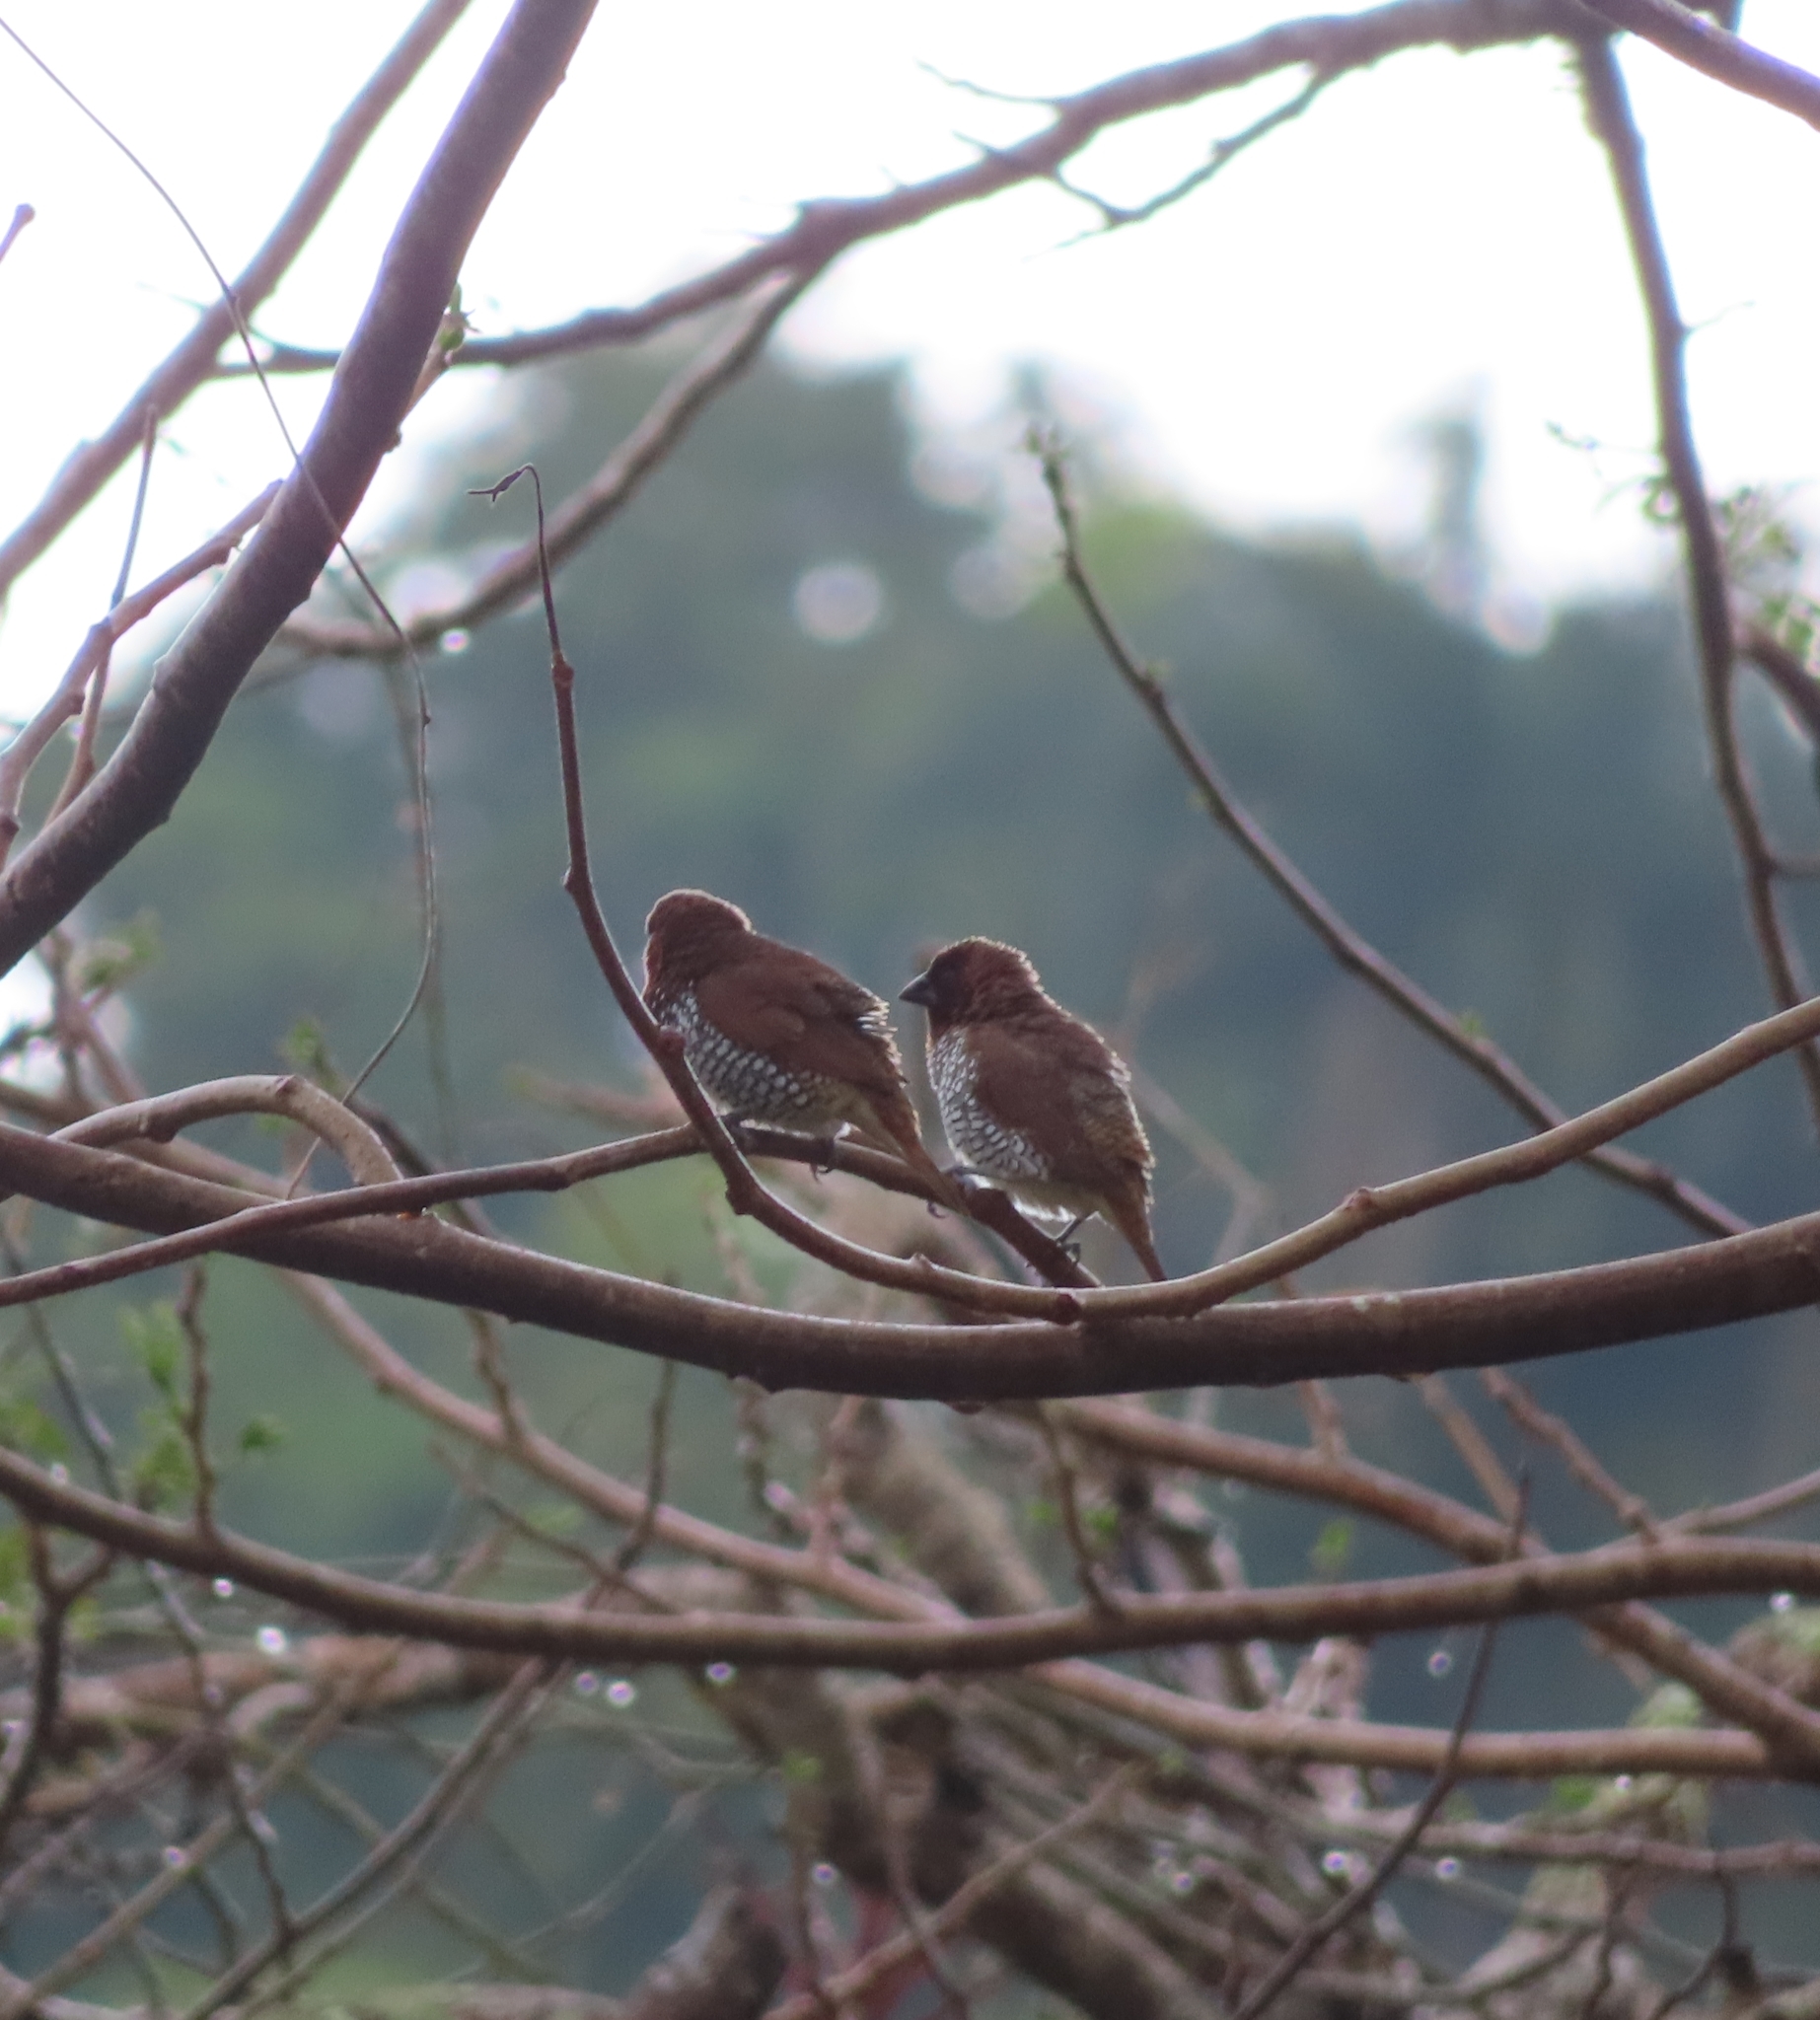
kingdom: Animalia
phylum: Chordata
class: Aves
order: Passeriformes
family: Estrildidae
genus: Lonchura
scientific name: Lonchura punctulata
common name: Scaly-breasted munia
